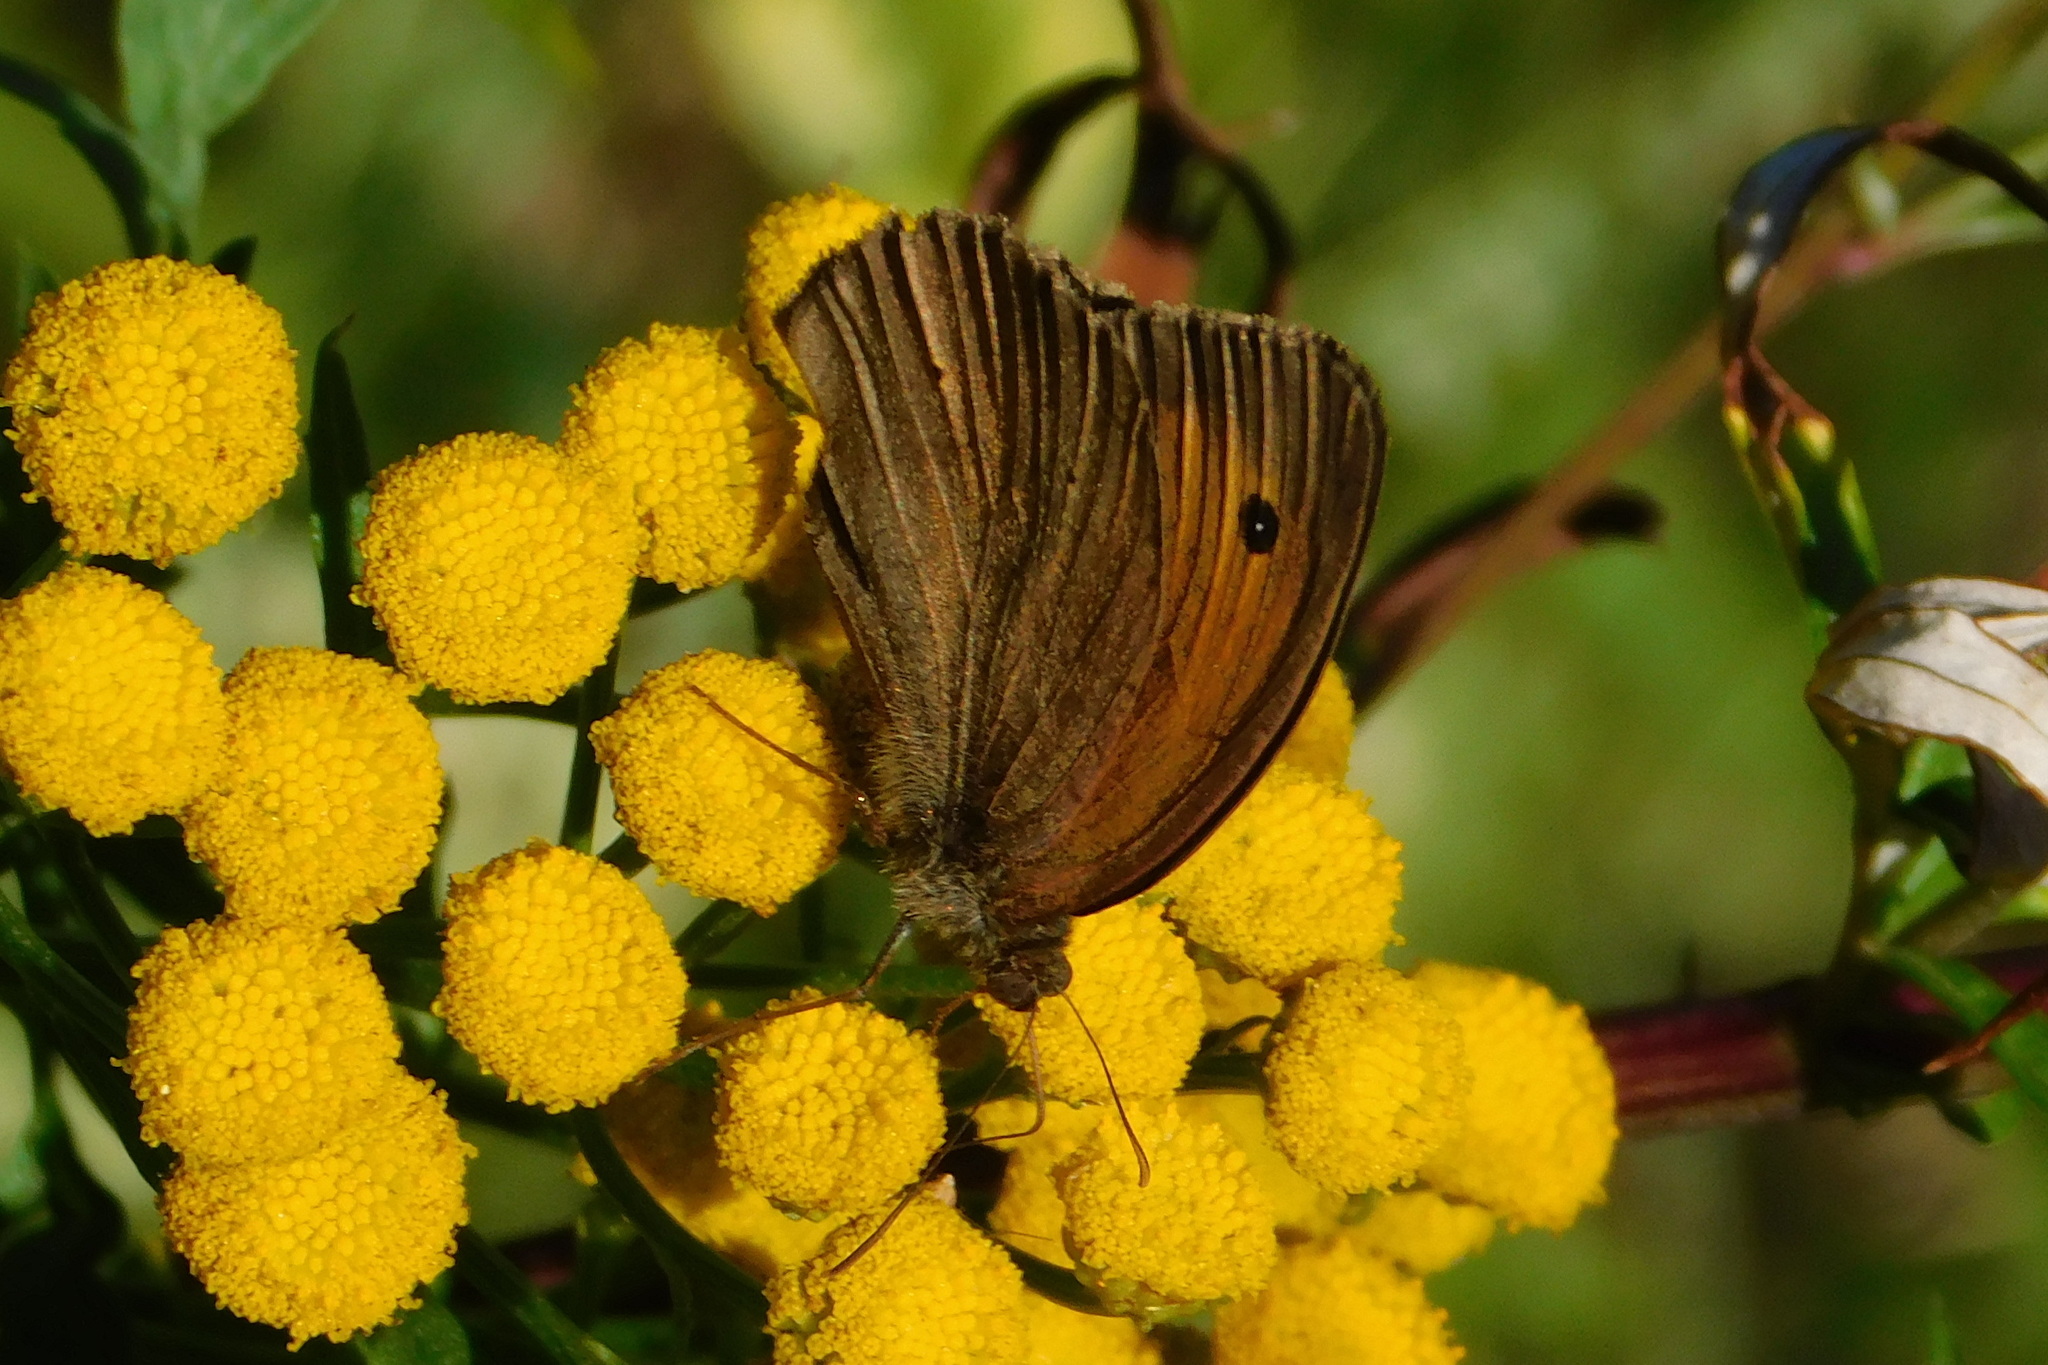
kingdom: Animalia
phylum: Arthropoda
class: Insecta
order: Lepidoptera
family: Nymphalidae
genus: Maniola
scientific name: Maniola jurtina
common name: Meadow brown
